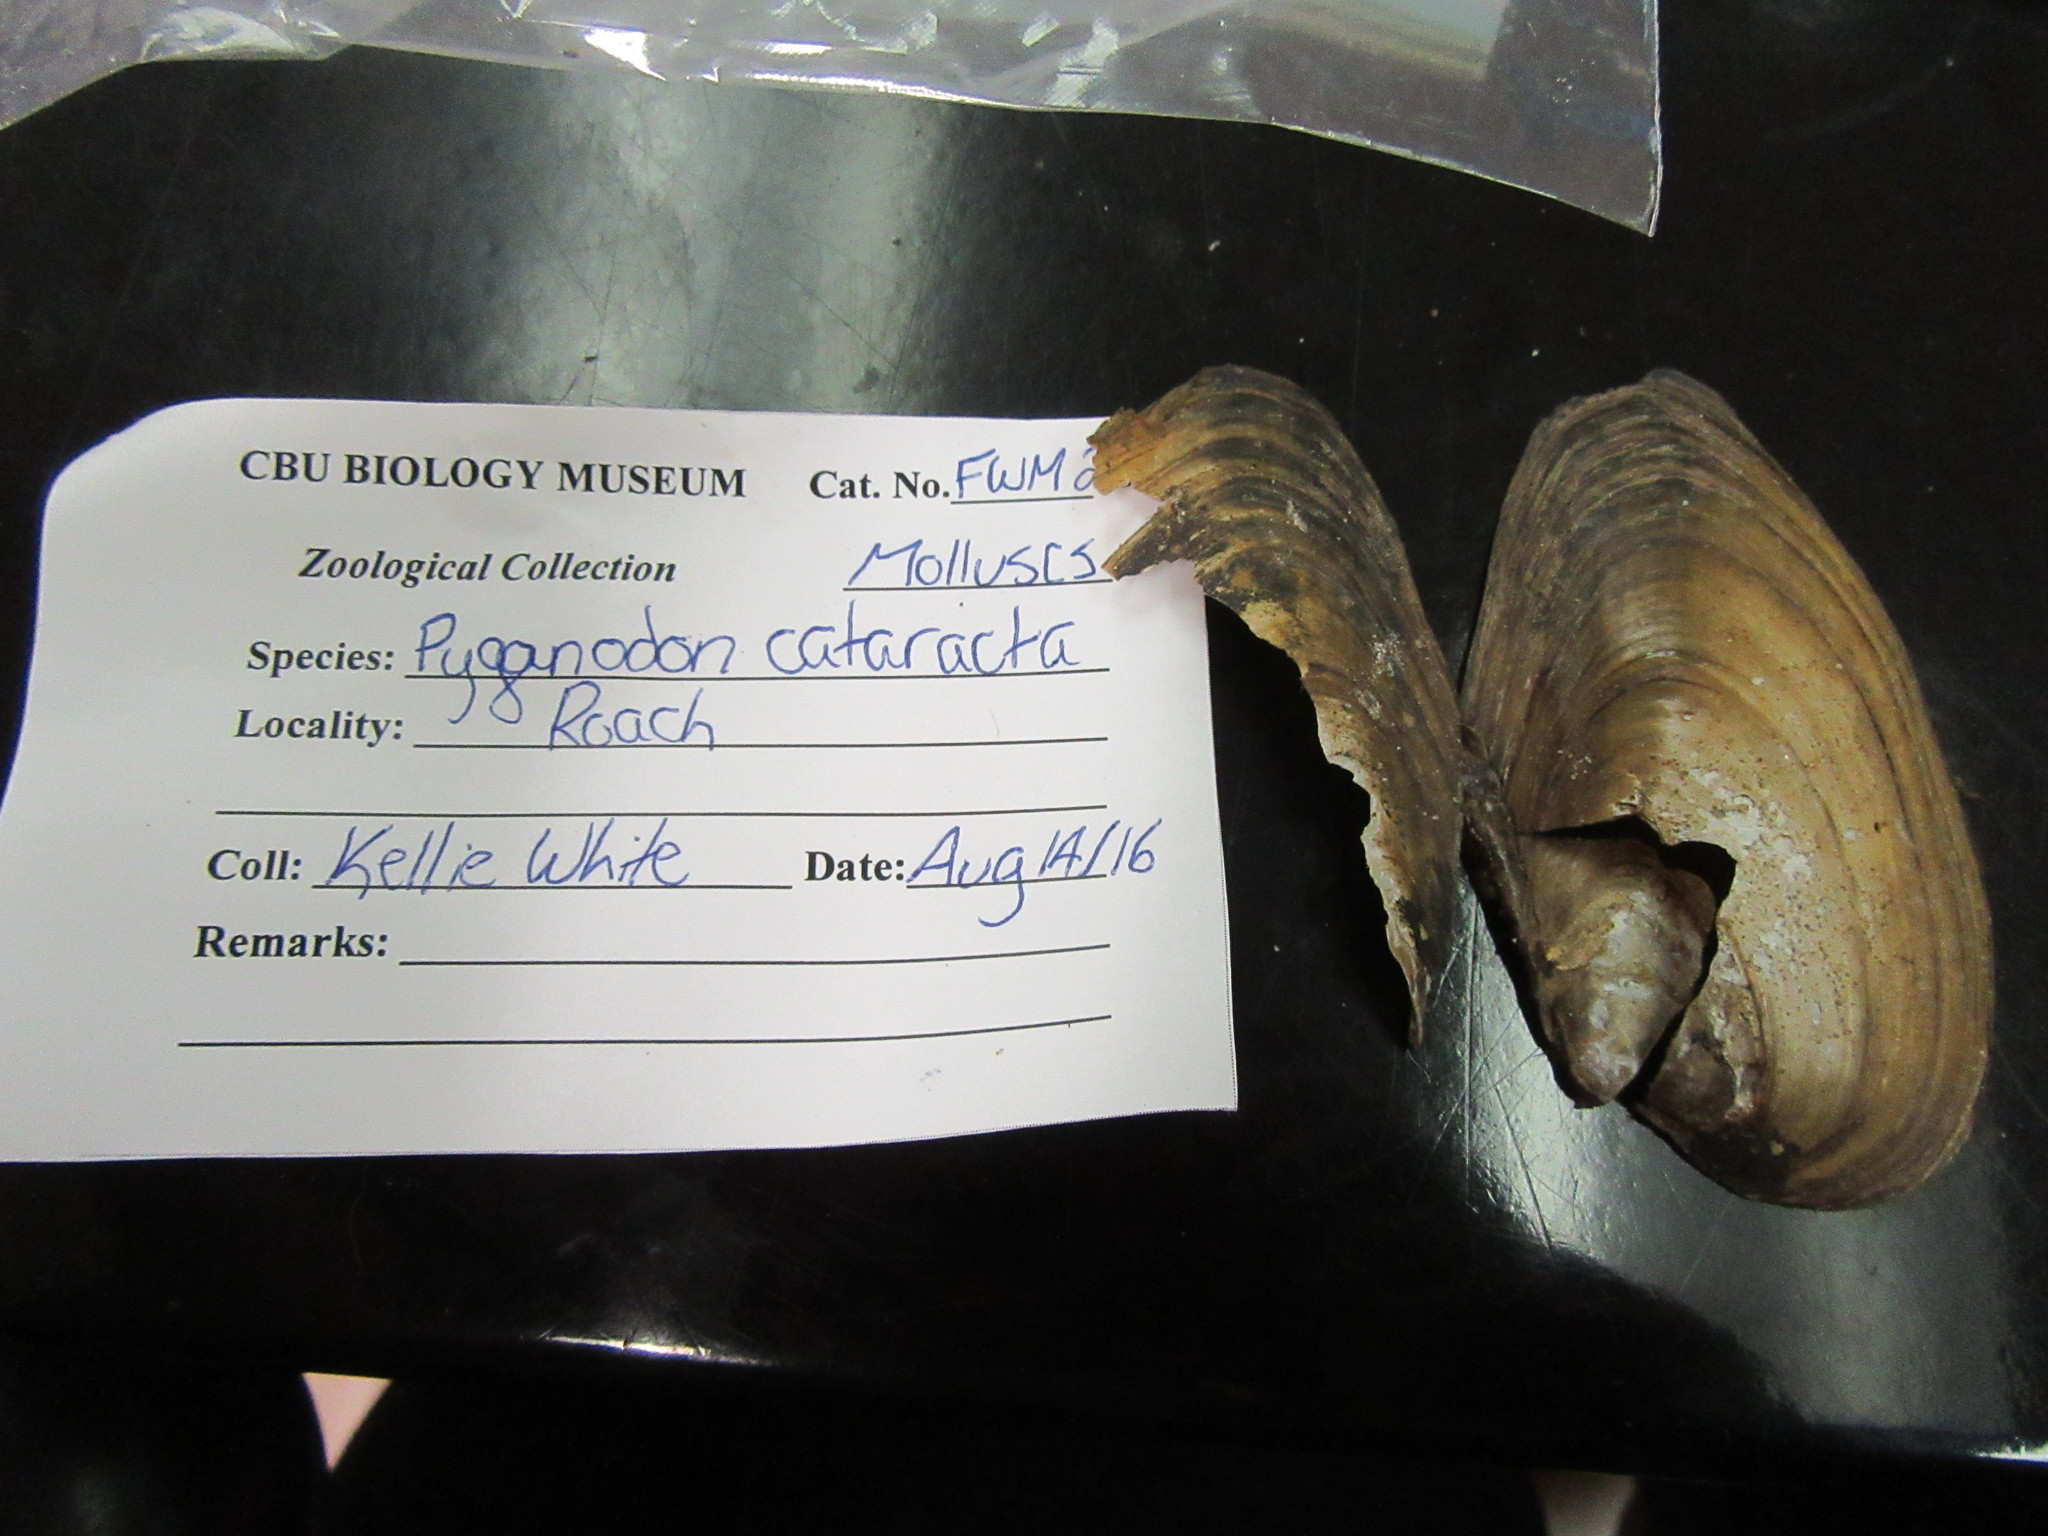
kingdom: Animalia
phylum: Mollusca
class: Bivalvia
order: Unionida
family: Unionidae
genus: Pyganodon
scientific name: Pyganodon cataracta
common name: Eastern floater
